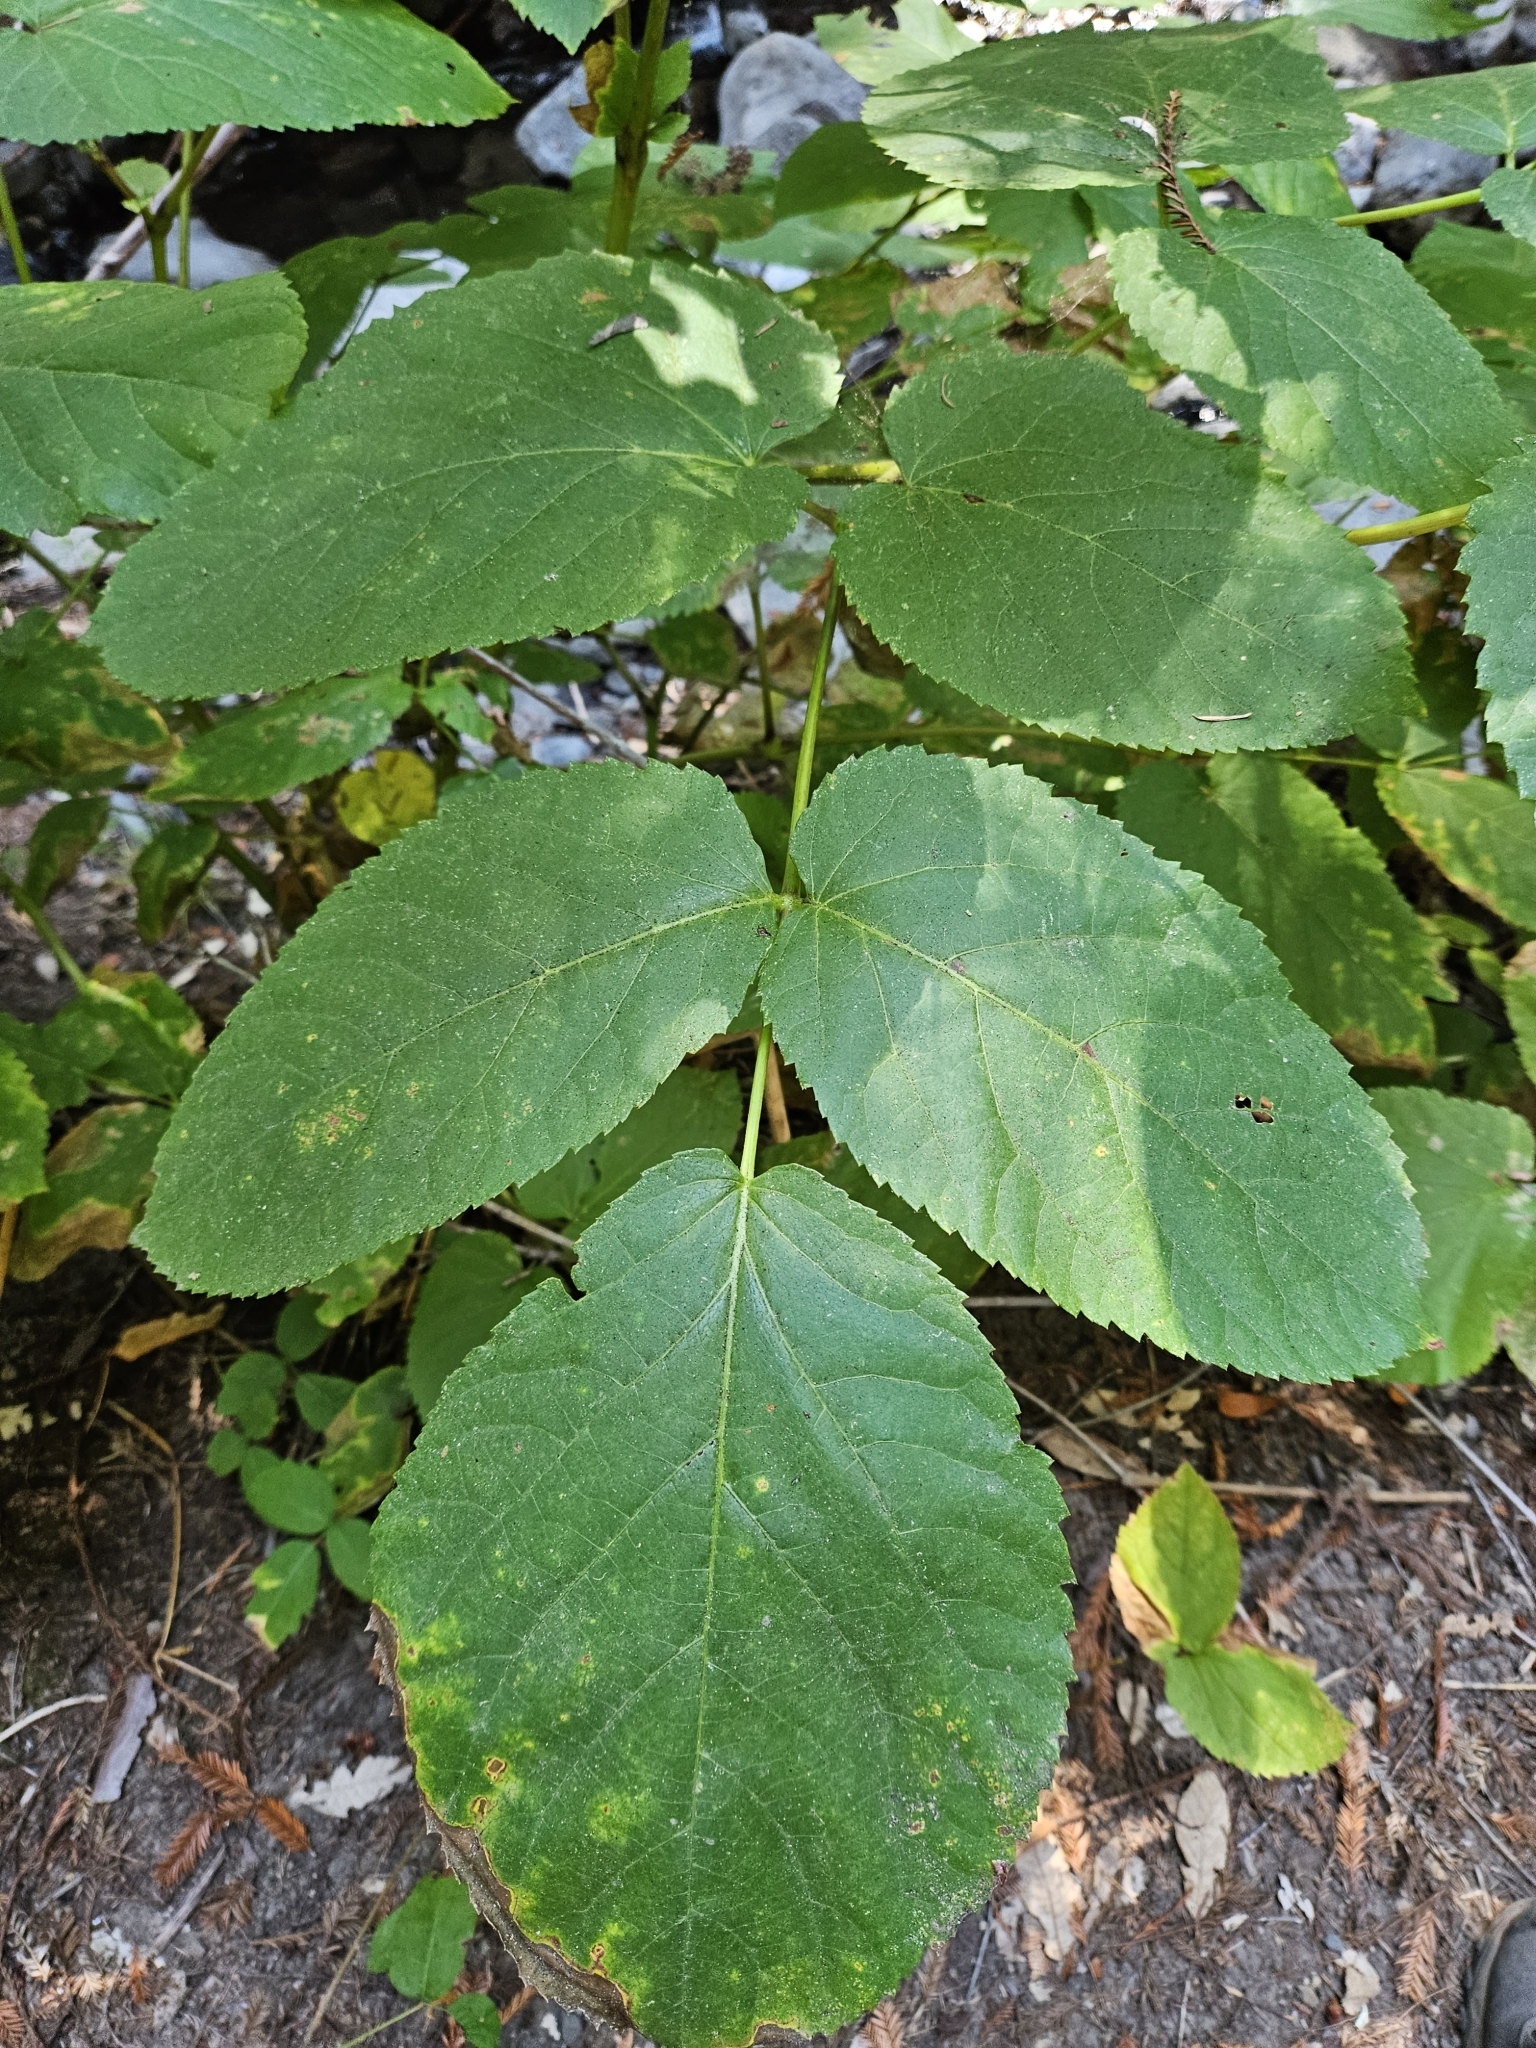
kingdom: Plantae
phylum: Tracheophyta
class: Magnoliopsida
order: Apiales
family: Araliaceae
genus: Aralia
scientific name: Aralia californica
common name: California-ginseng
